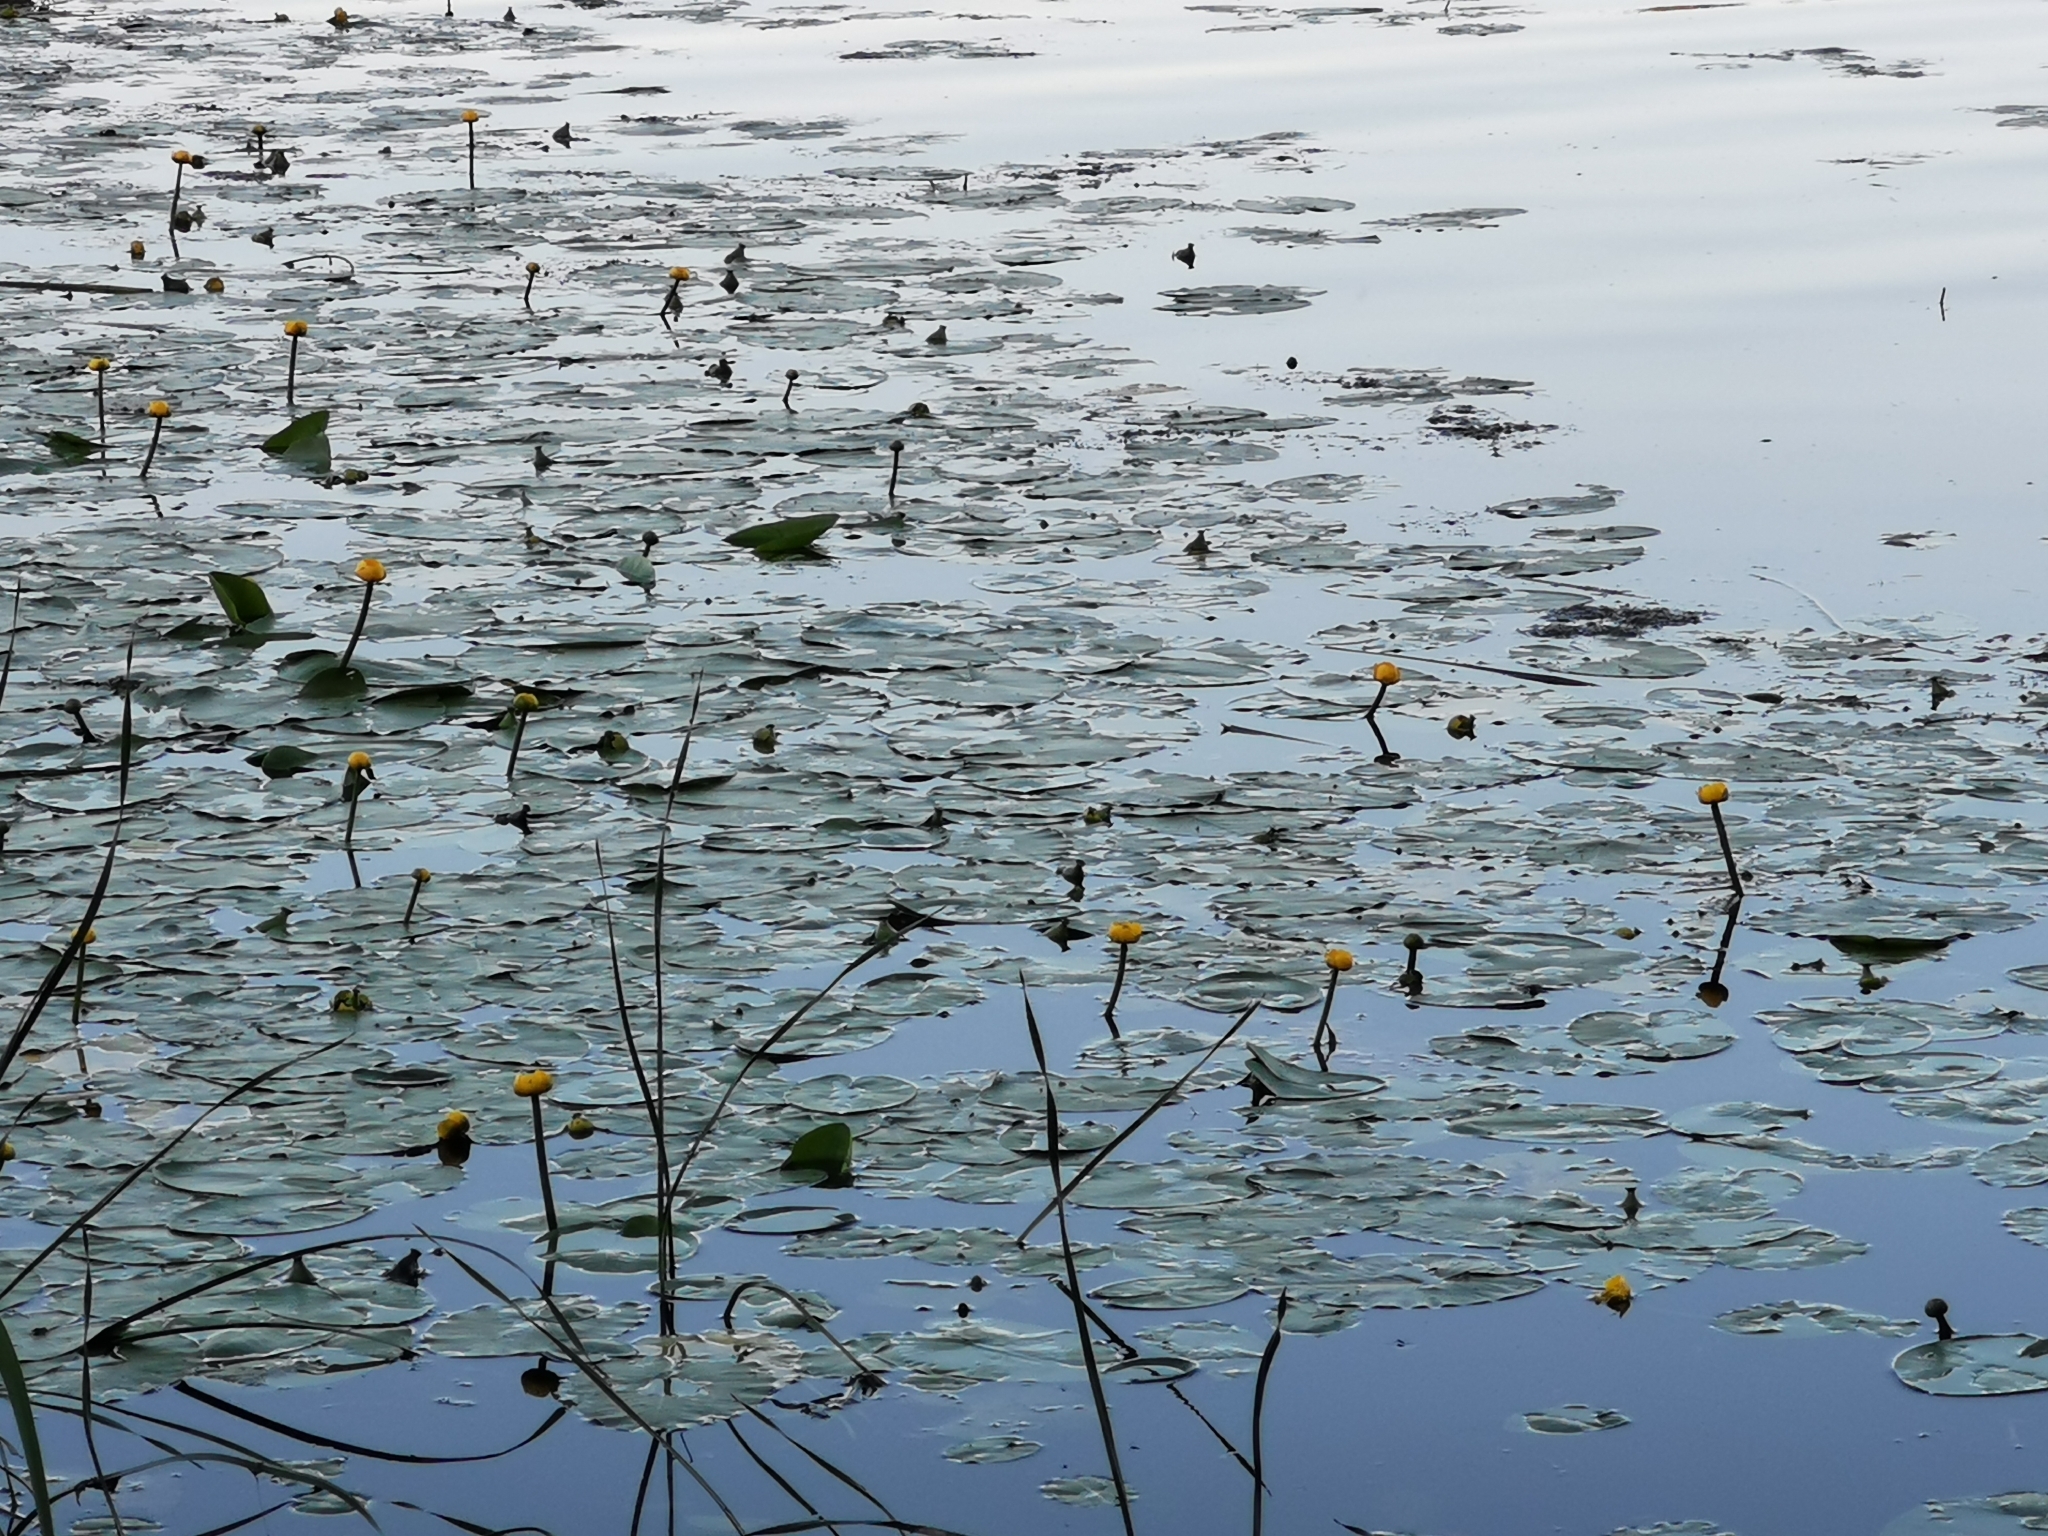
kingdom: Plantae
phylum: Tracheophyta
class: Magnoliopsida
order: Nymphaeales
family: Nymphaeaceae
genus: Nuphar
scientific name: Nuphar lutea
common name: Yellow water-lily
